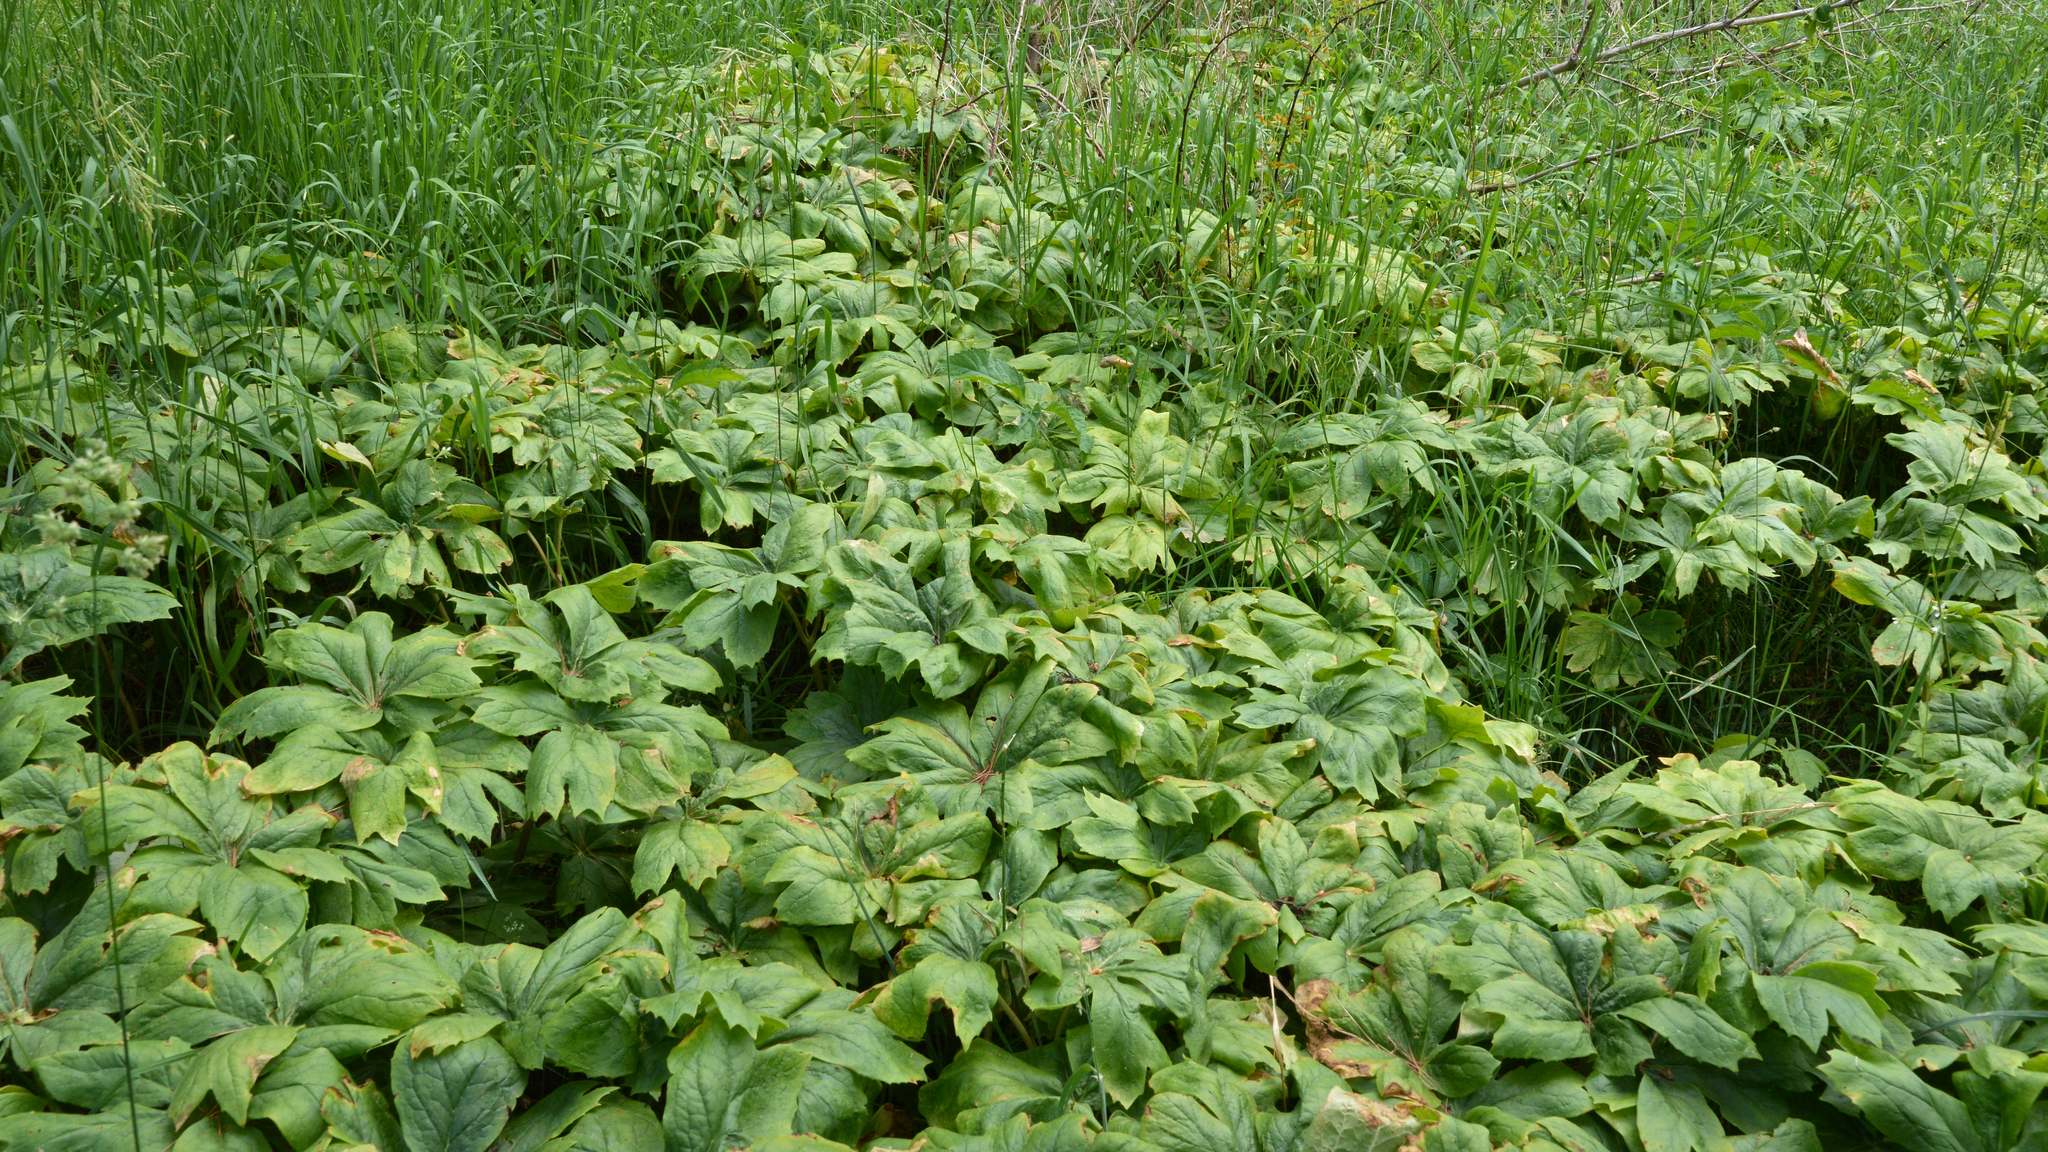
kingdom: Plantae
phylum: Tracheophyta
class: Magnoliopsida
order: Ranunculales
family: Berberidaceae
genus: Podophyllum
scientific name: Podophyllum peltatum
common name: Wild mandrake
